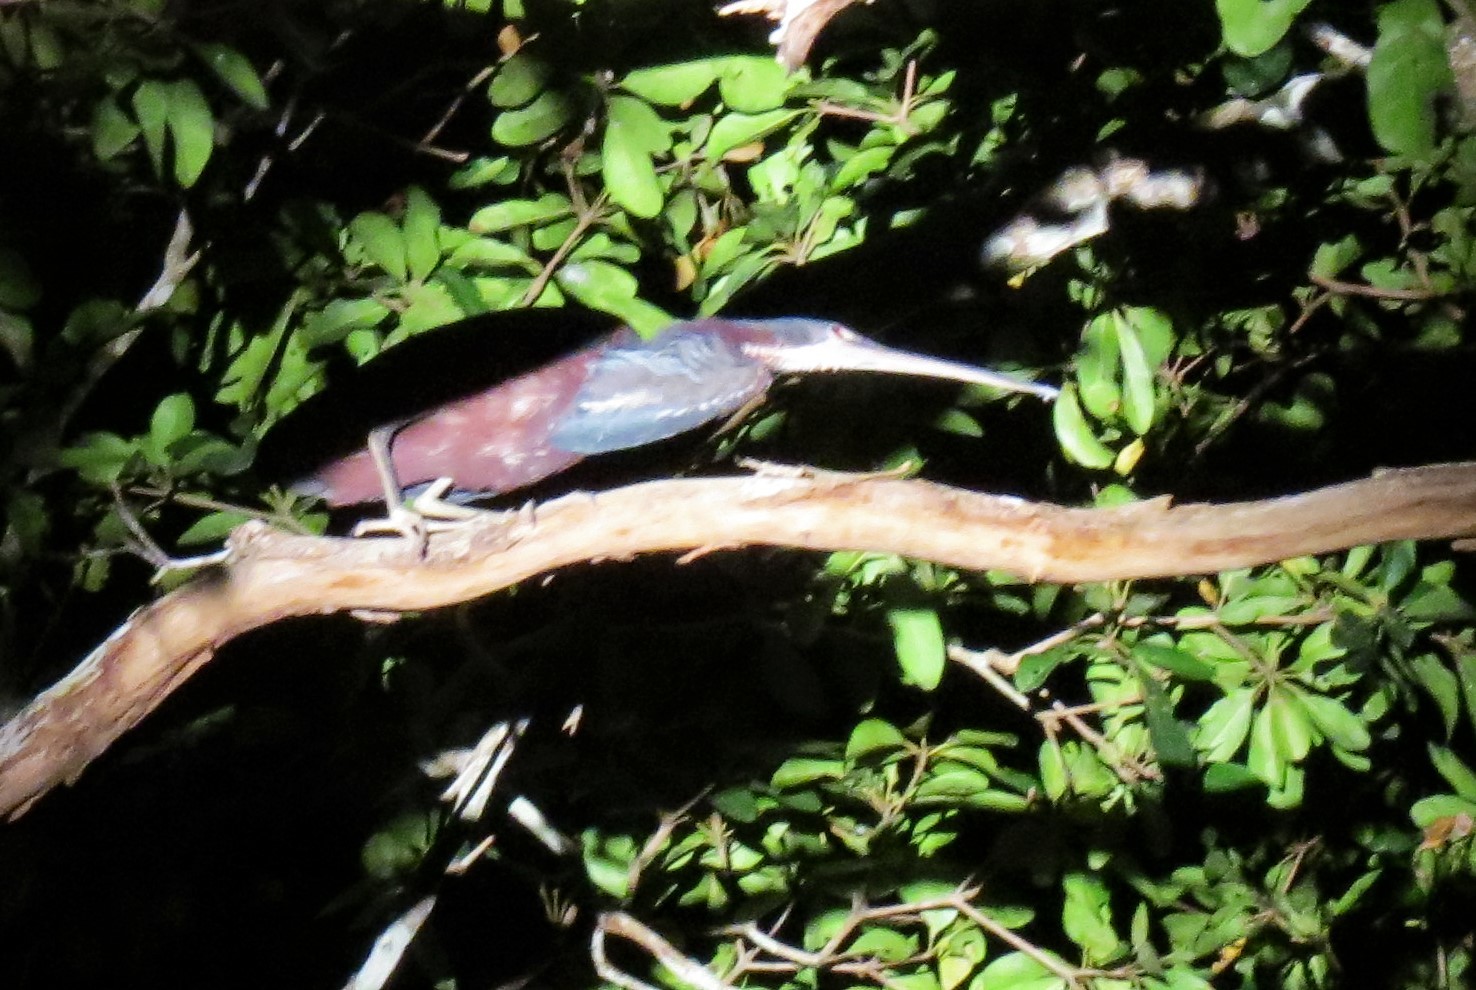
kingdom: Animalia
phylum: Chordata
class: Aves
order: Pelecaniformes
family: Ardeidae
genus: Agamia
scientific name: Agamia agami
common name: Agami heron
